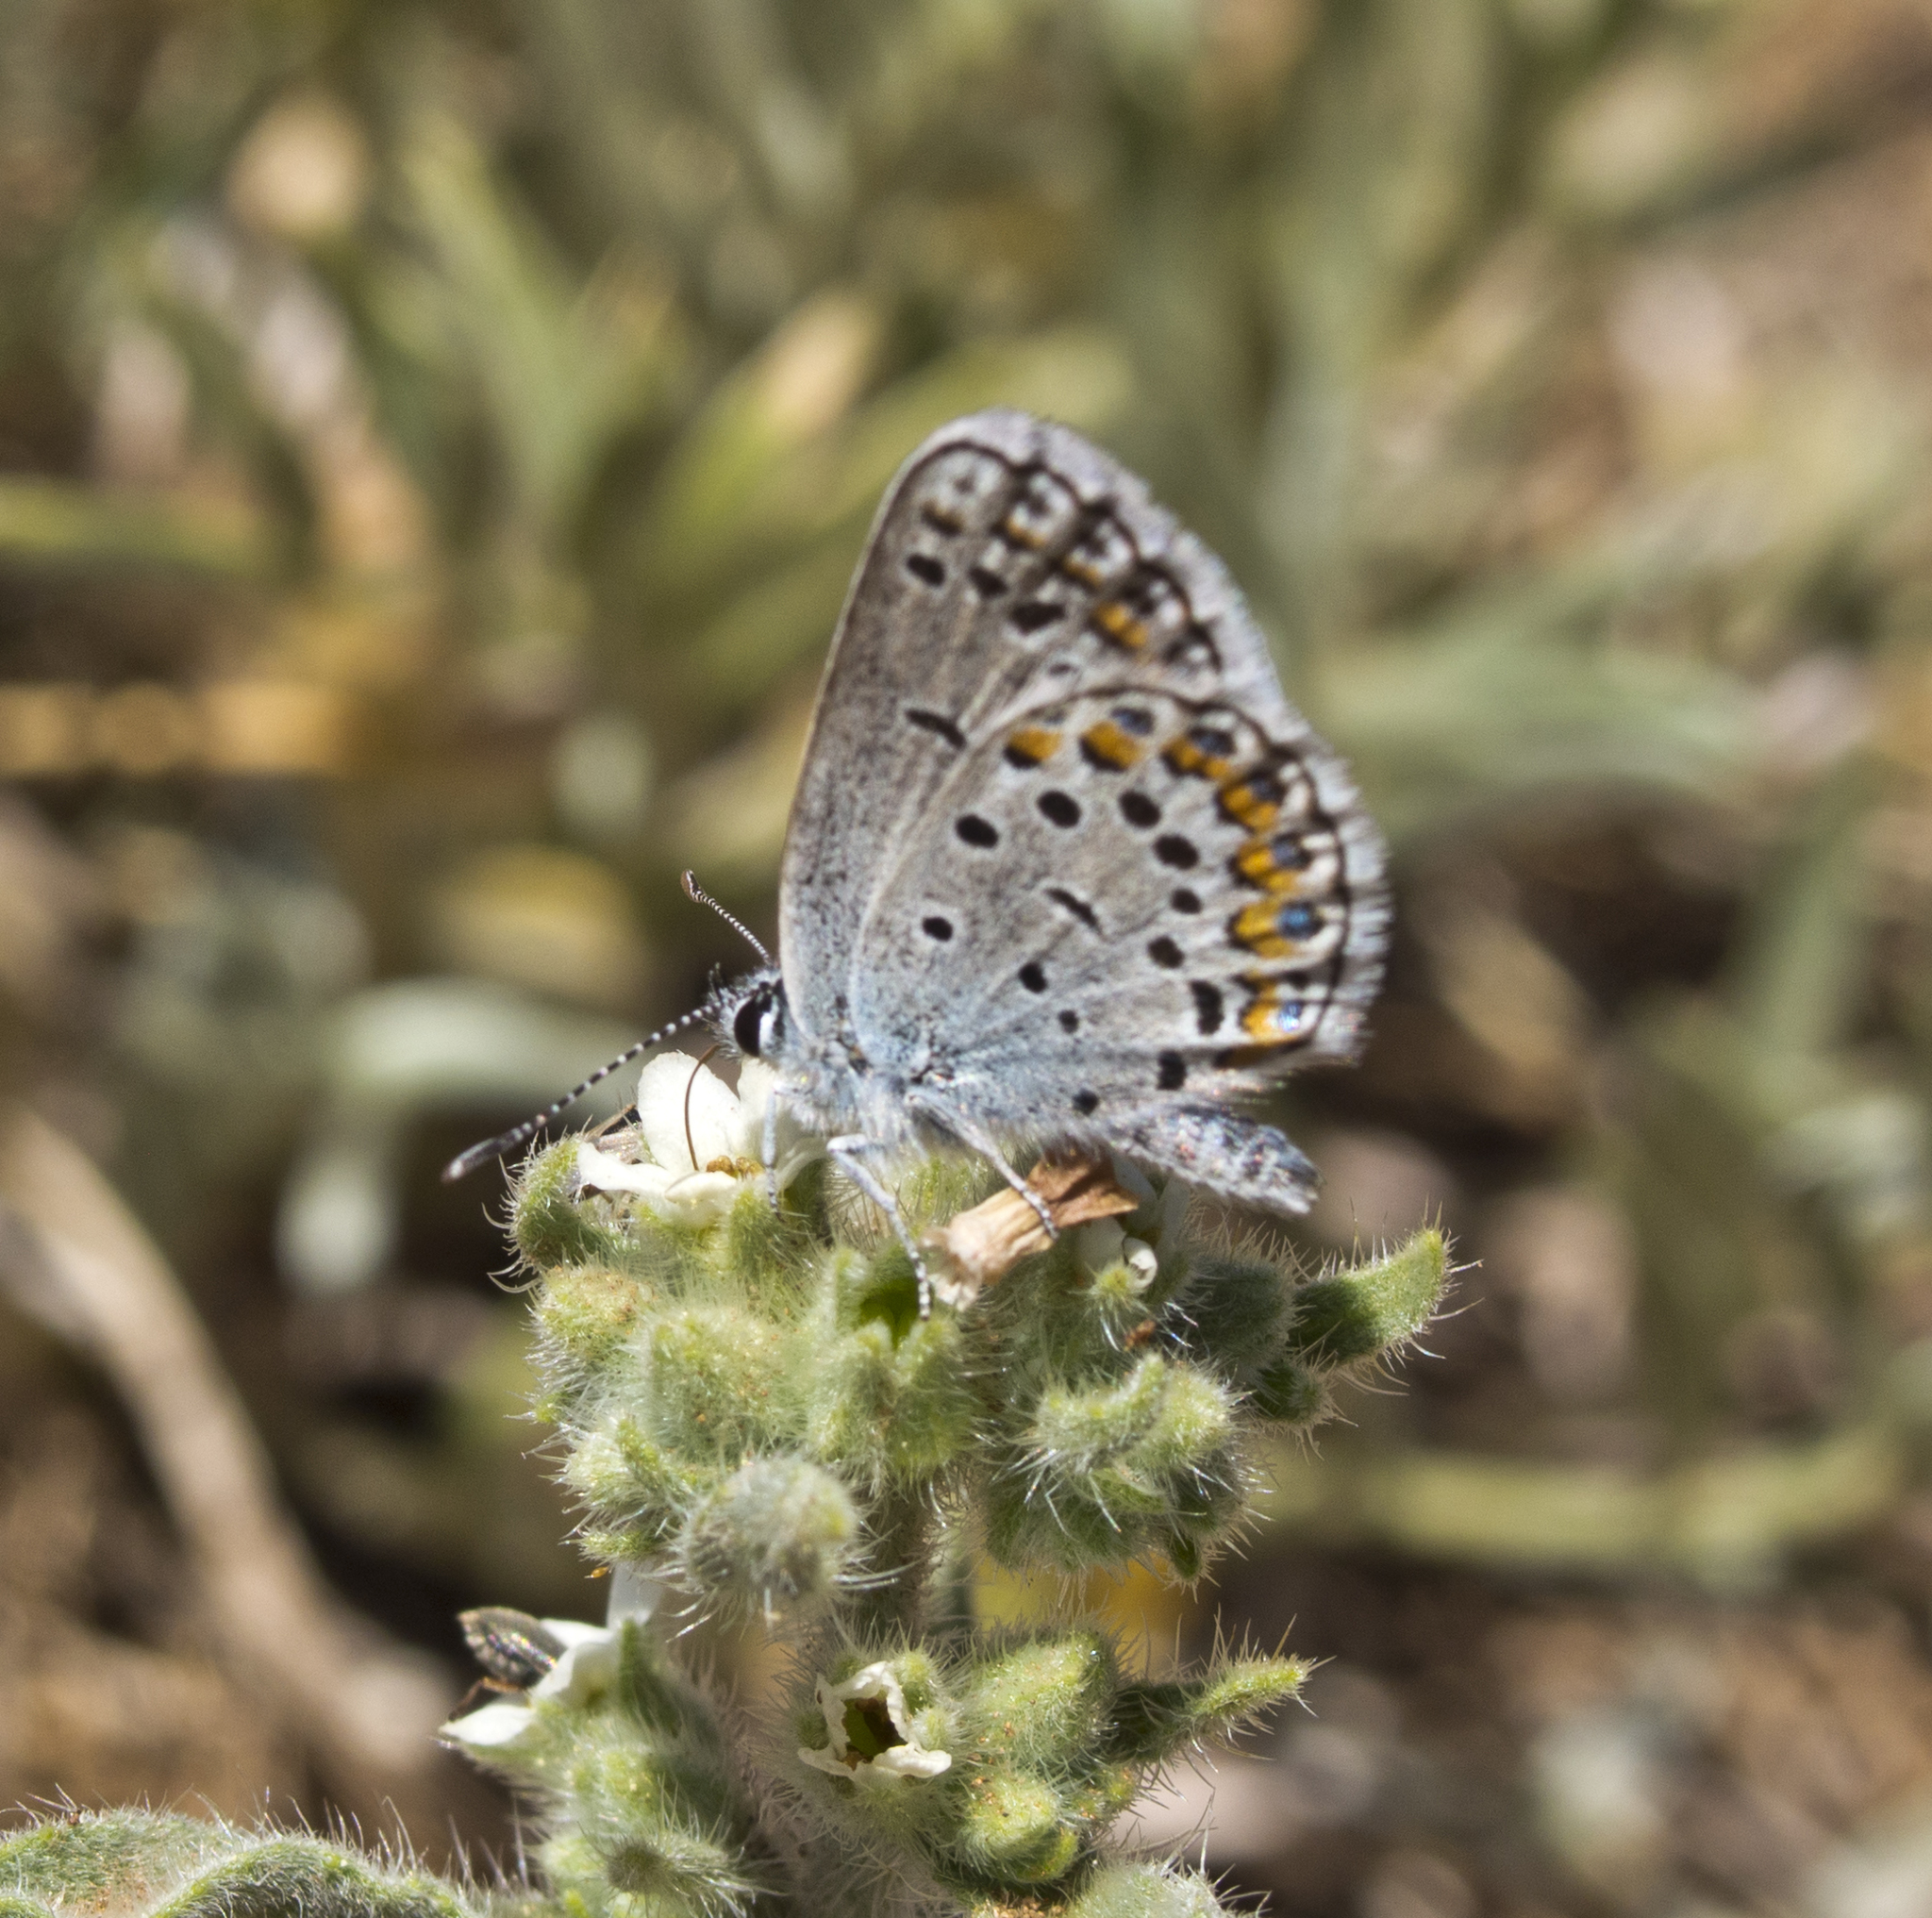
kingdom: Animalia
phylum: Arthropoda
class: Insecta
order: Lepidoptera
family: Lycaenidae
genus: Lycaeides
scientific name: Lycaeides melissa
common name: Melissa blue
